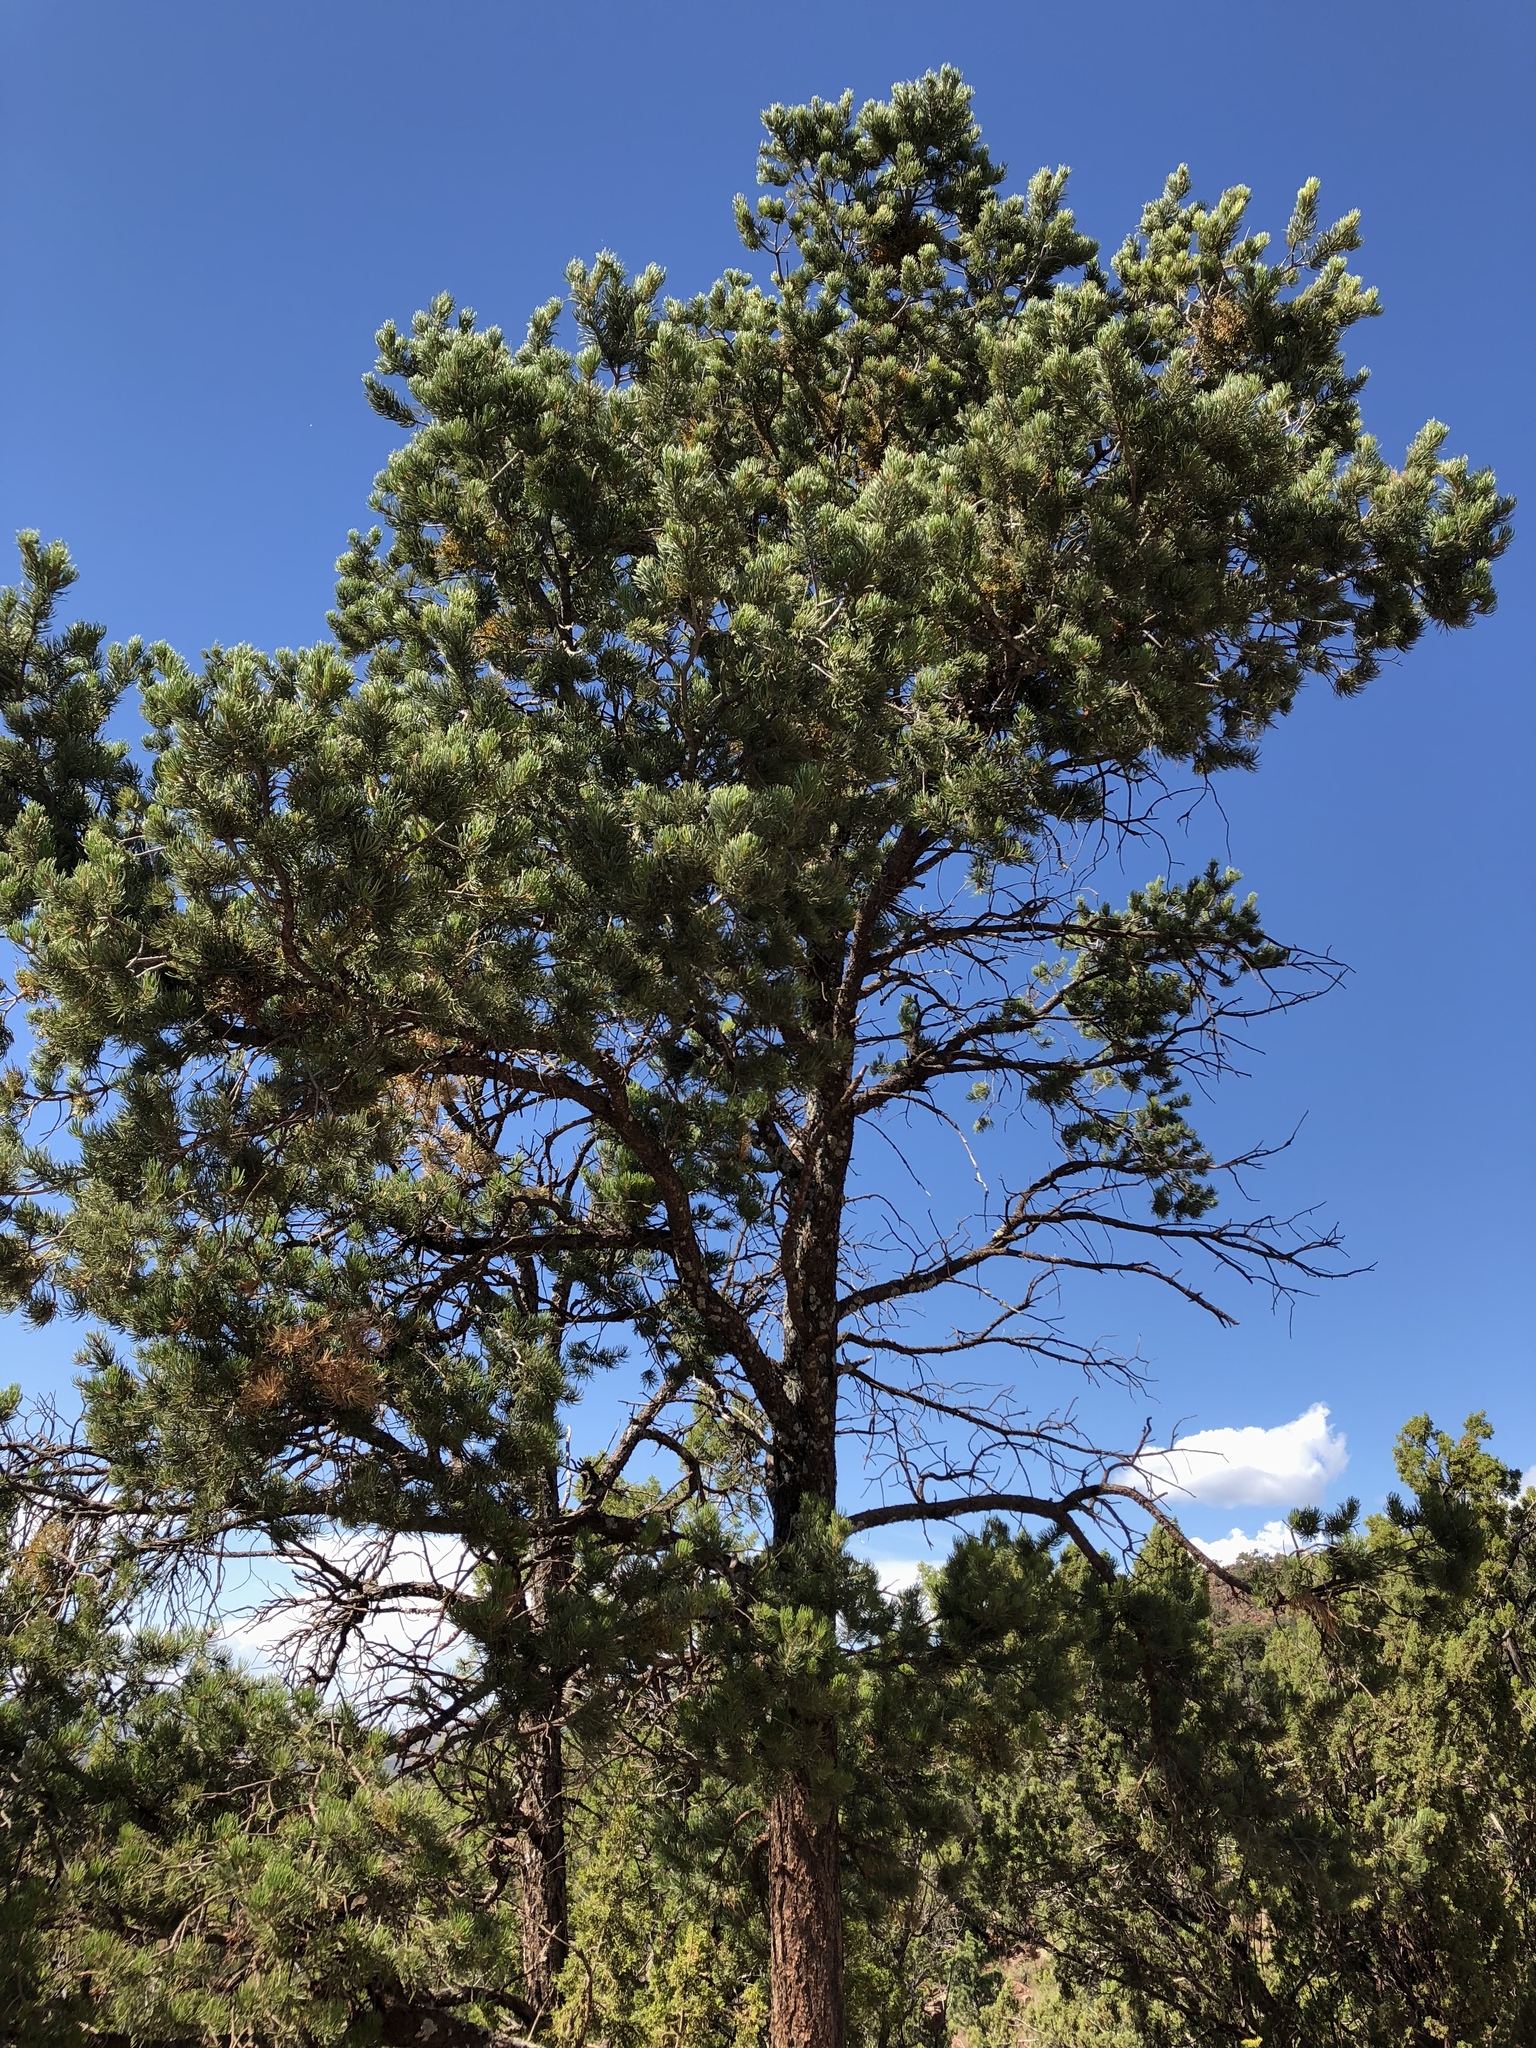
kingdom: Plantae
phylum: Tracheophyta
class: Pinopsida
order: Pinales
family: Pinaceae
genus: Pinus
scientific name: Pinus edulis
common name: Colorado pinyon
